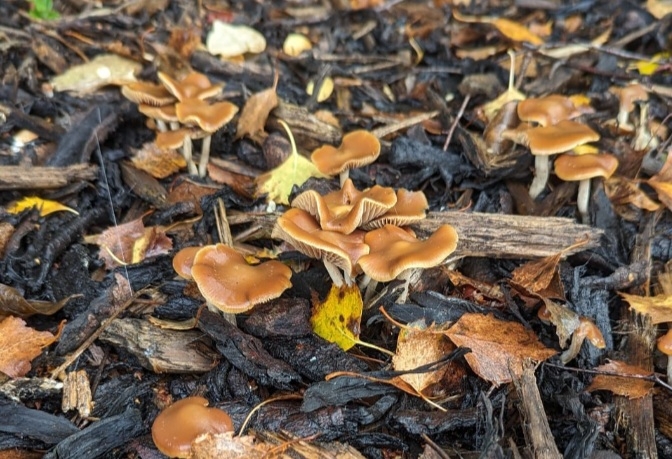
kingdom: Fungi
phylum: Basidiomycota
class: Agaricomycetes
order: Agaricales
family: Hymenogastraceae
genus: Psilocybe
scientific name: Psilocybe cyanescens
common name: Blueleg brownie
